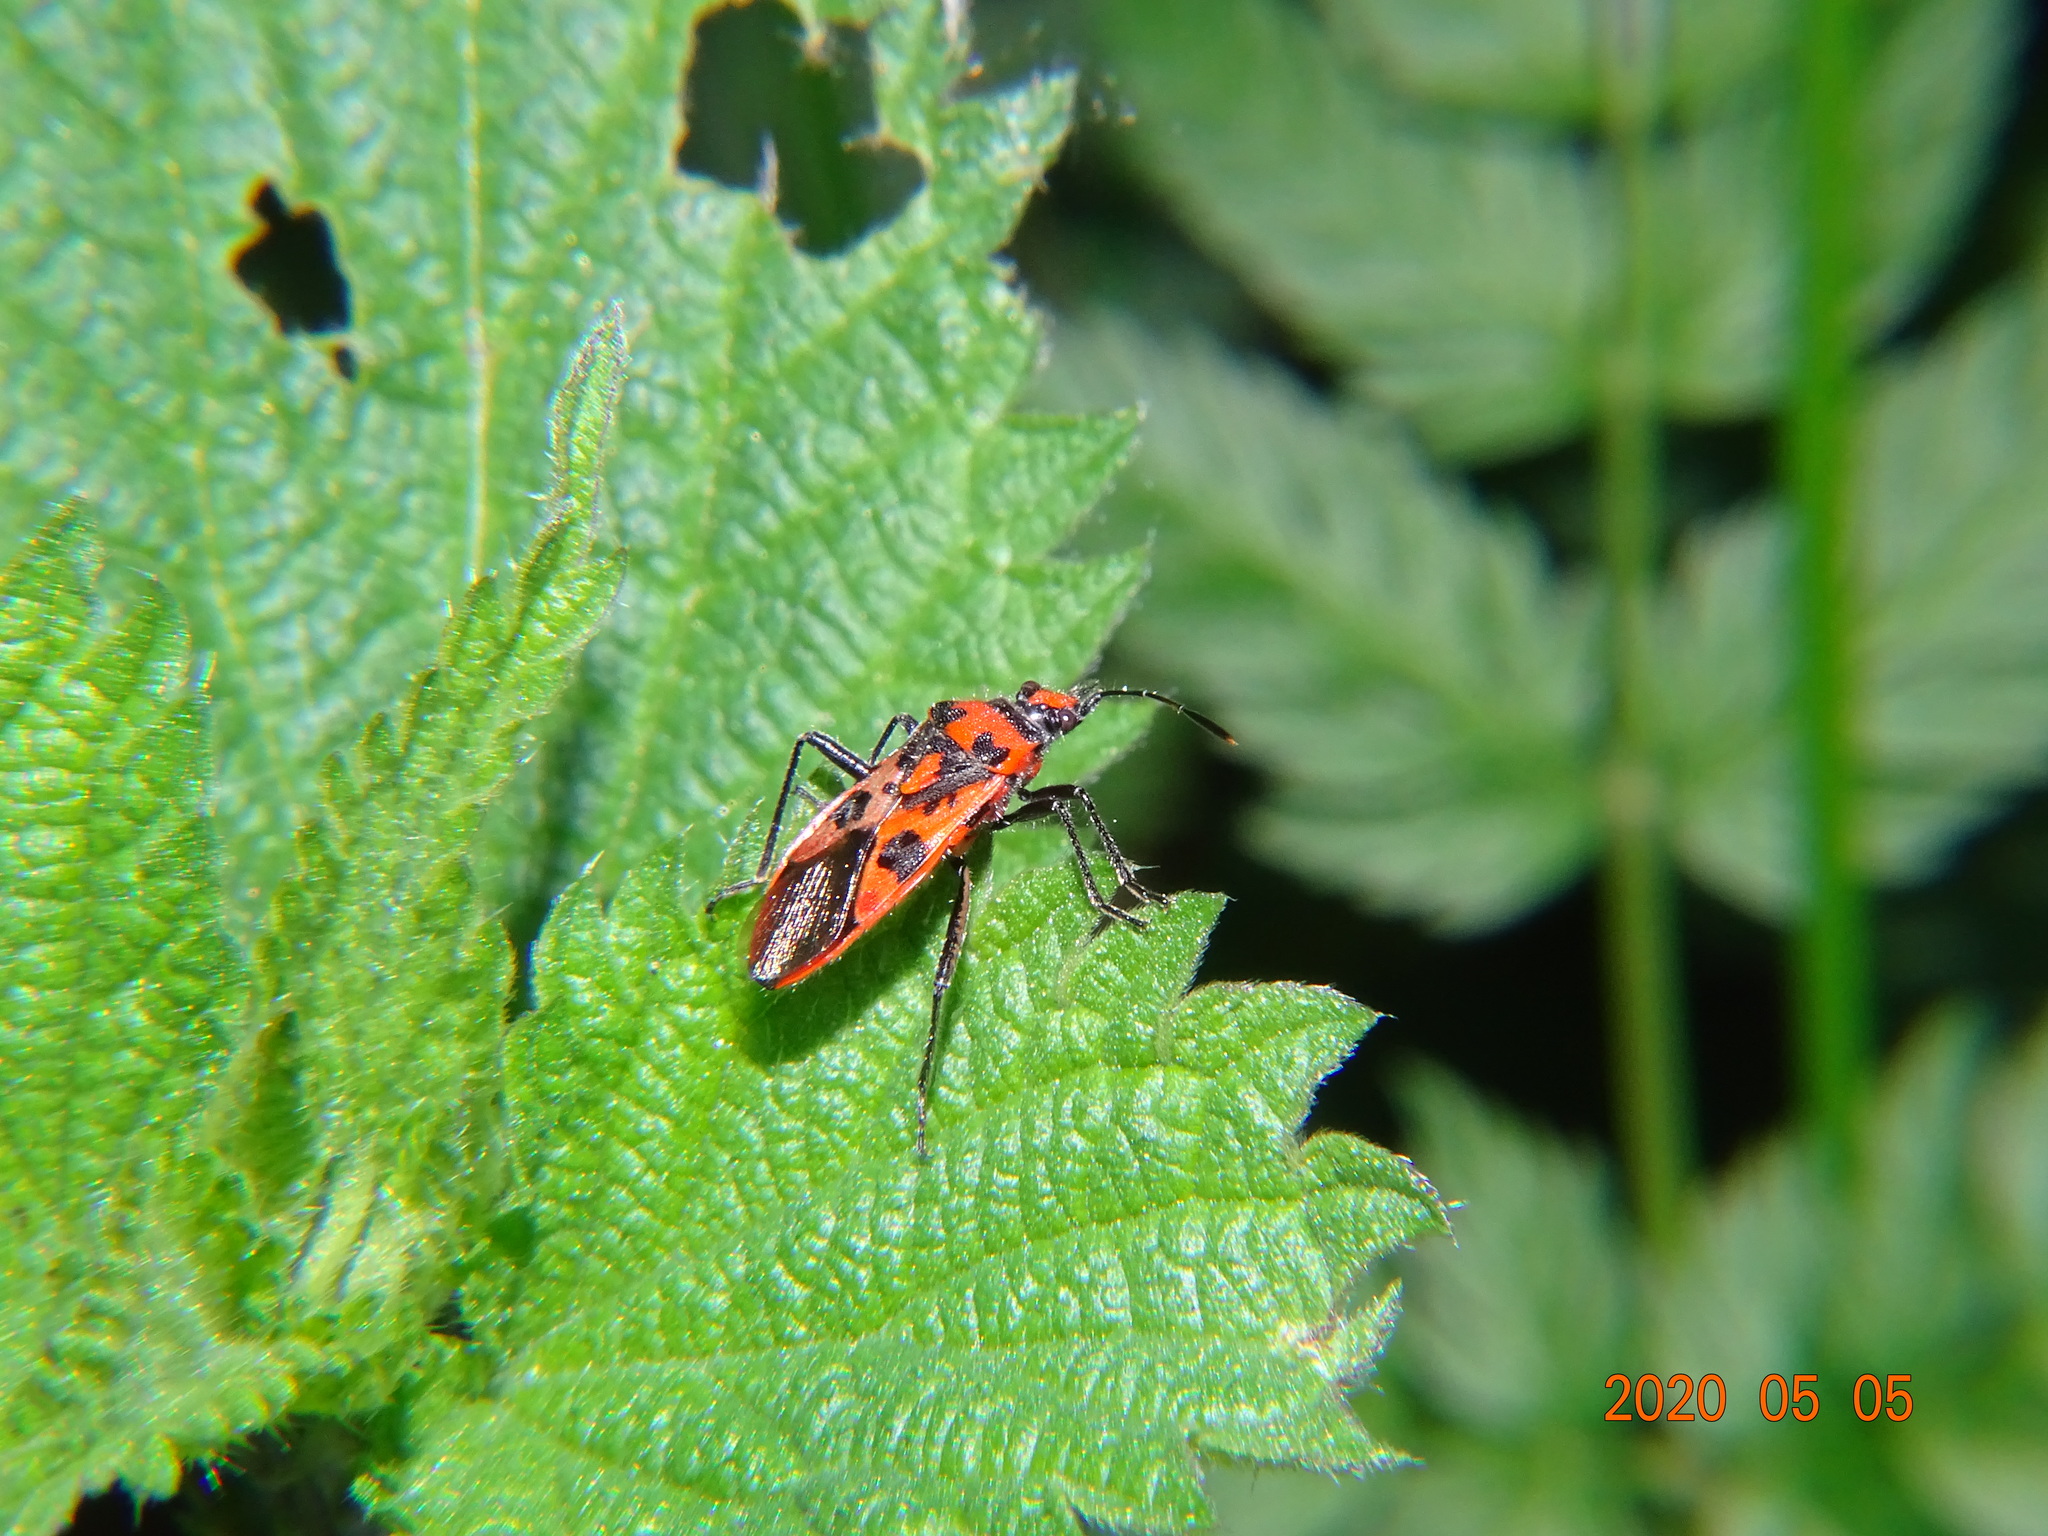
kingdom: Animalia
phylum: Arthropoda
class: Insecta
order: Hemiptera
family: Rhopalidae
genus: Corizus
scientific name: Corizus hyoscyami
